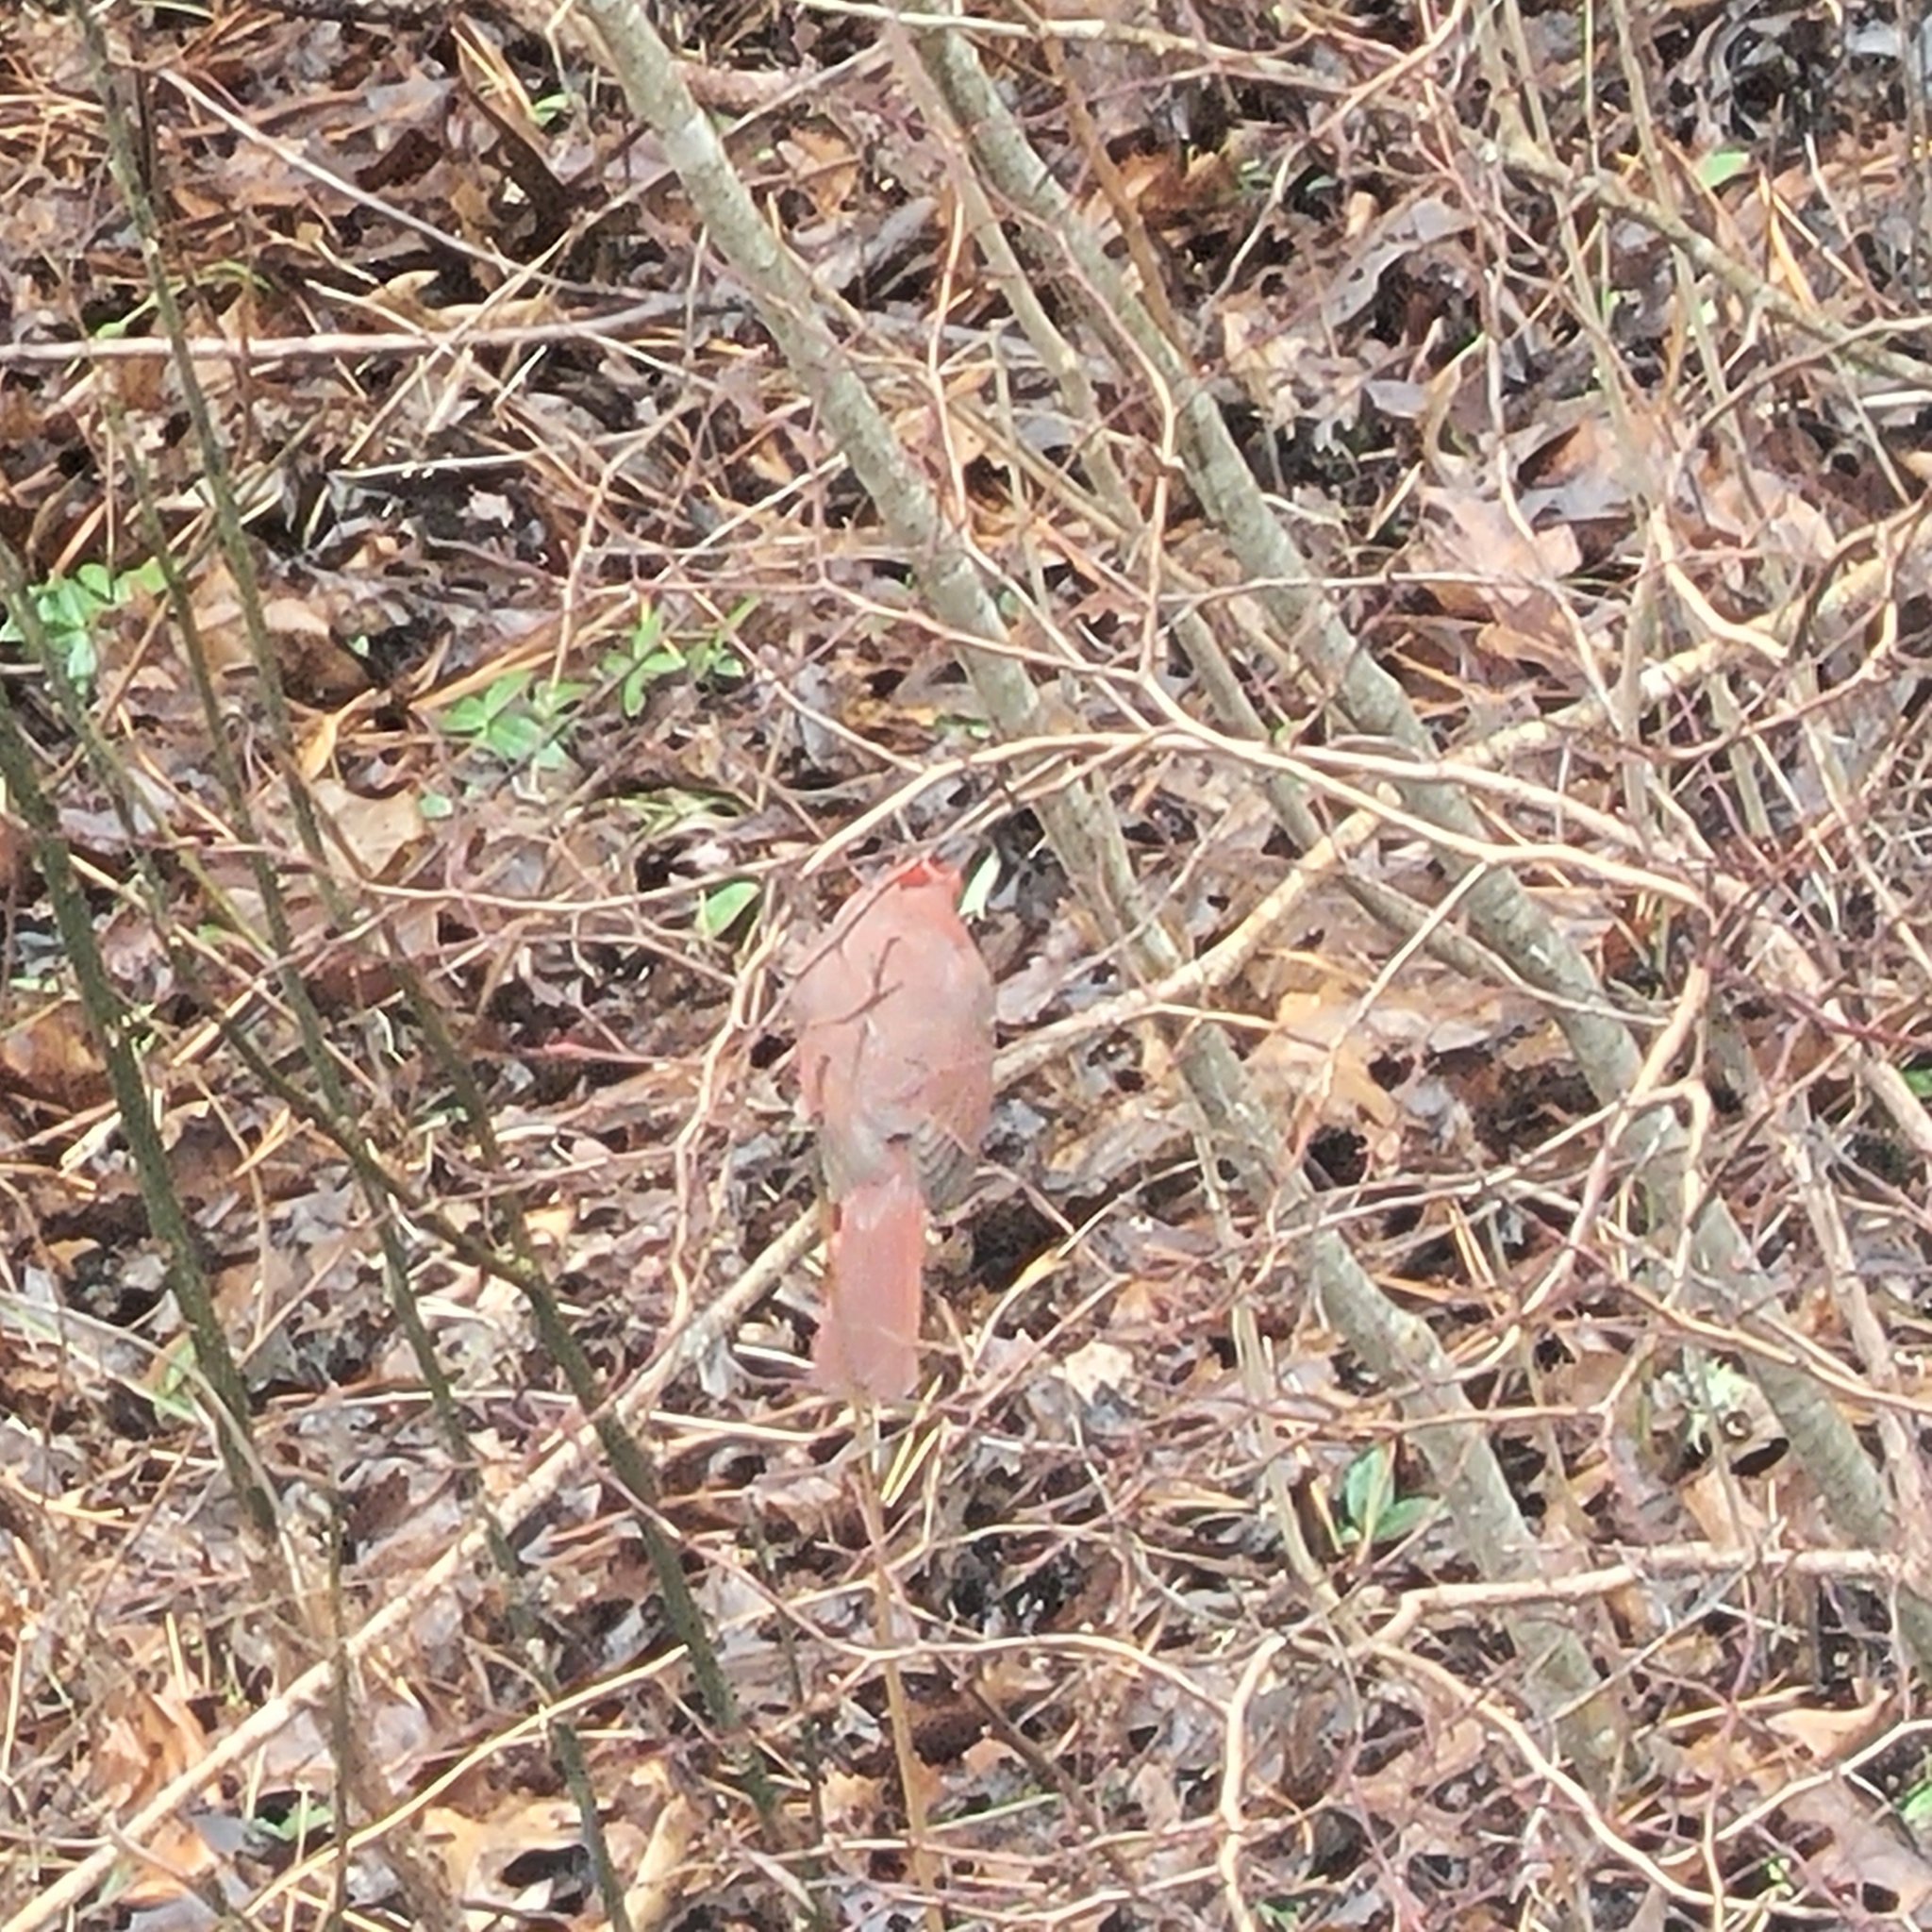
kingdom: Animalia
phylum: Chordata
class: Aves
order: Passeriformes
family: Cardinalidae
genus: Cardinalis
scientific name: Cardinalis cardinalis
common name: Northern cardinal
